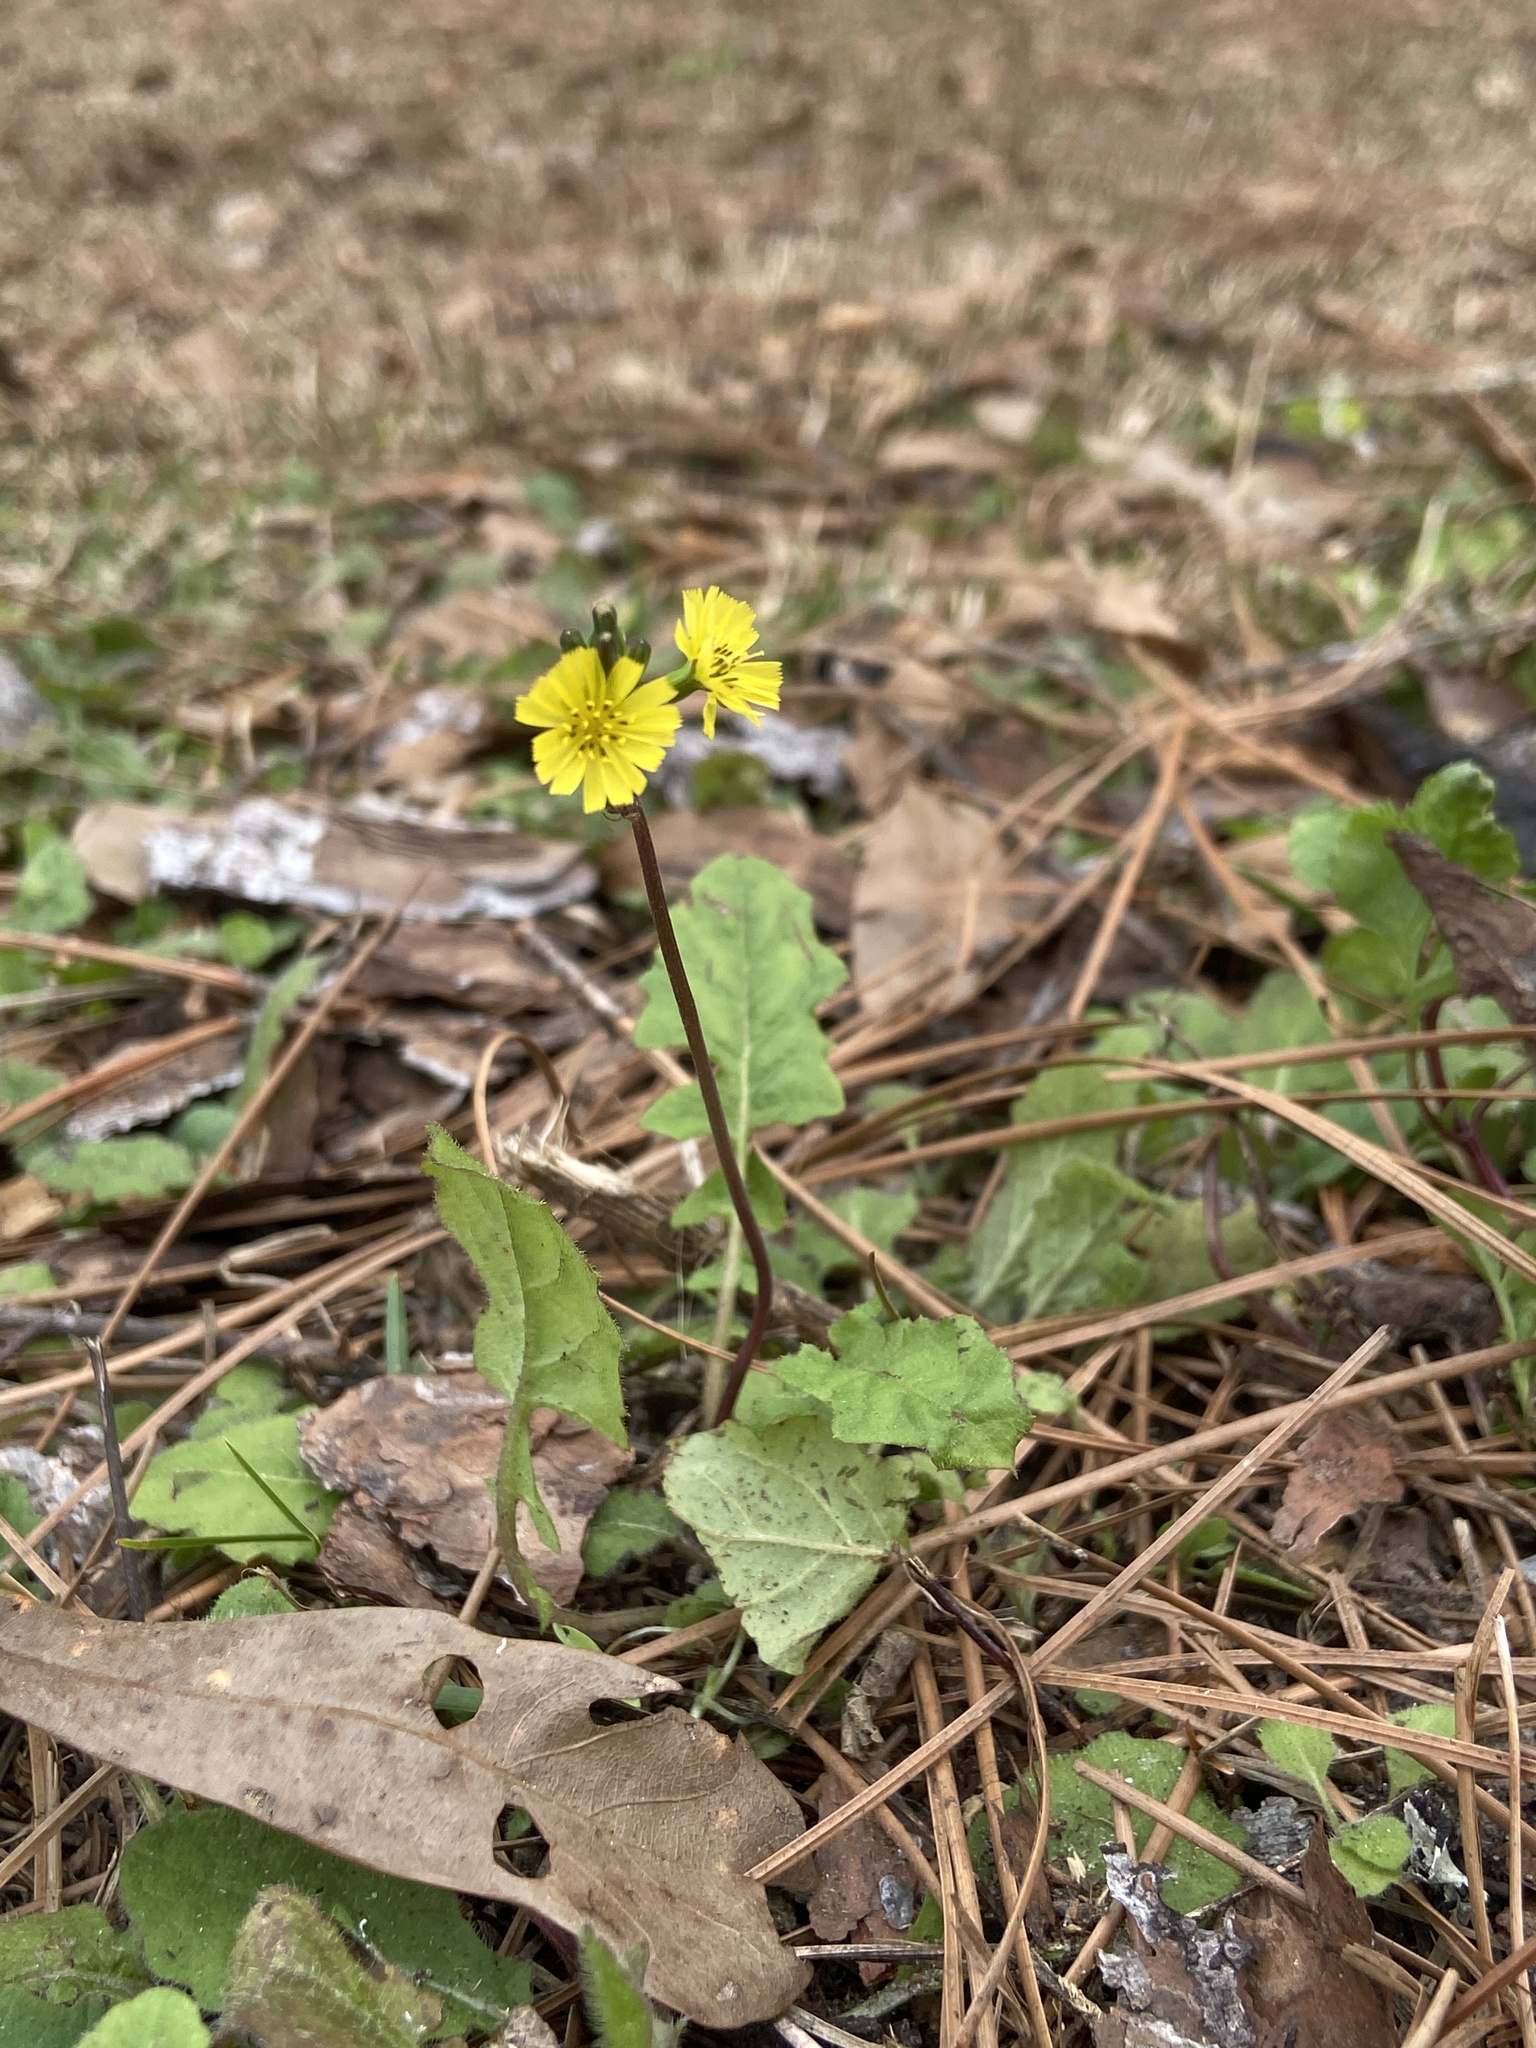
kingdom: Plantae
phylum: Tracheophyta
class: Magnoliopsida
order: Asterales
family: Asteraceae
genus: Youngia
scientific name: Youngia japonica
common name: Oriental false hawksbeard
